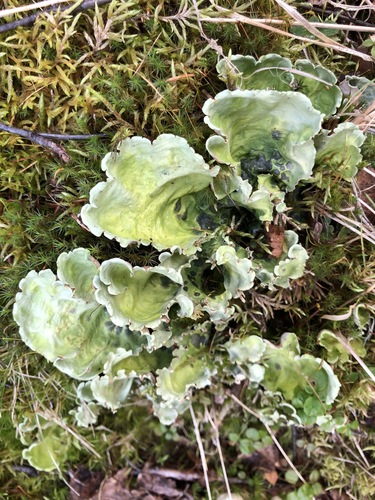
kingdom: Fungi
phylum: Ascomycota
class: Lecanoromycetes
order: Peltigerales
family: Nephromataceae
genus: Nephroma
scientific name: Nephroma arcticum
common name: Arctic kidney-lichen
